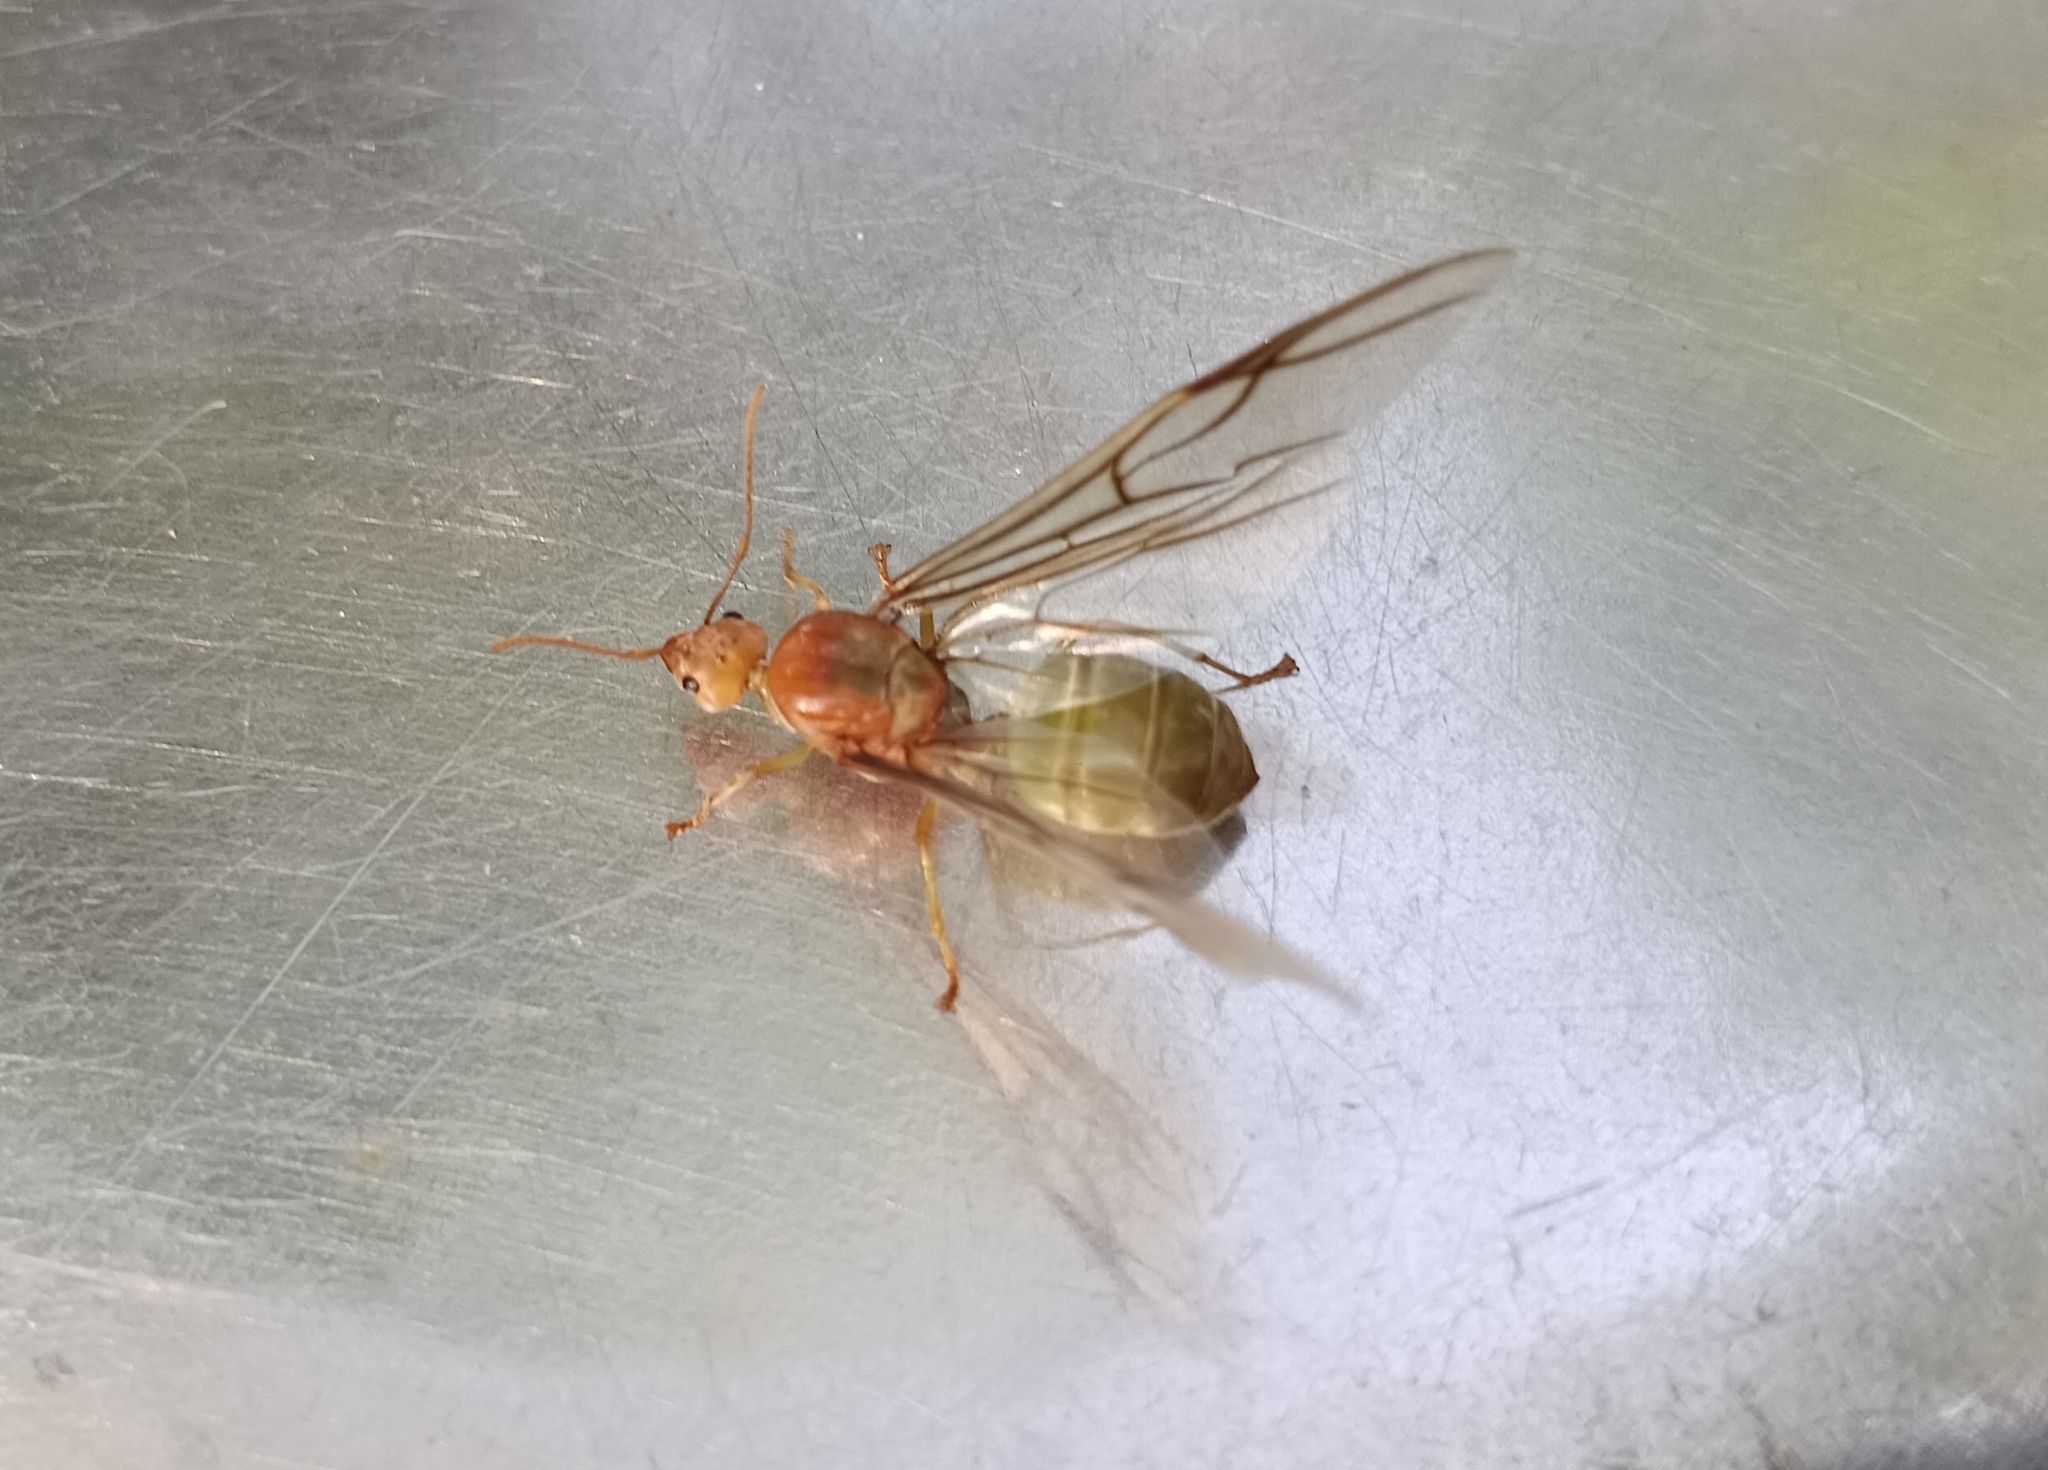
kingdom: Animalia
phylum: Arthropoda
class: Insecta
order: Hymenoptera
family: Formicidae
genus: Oecophylla
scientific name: Oecophylla smaragdina
